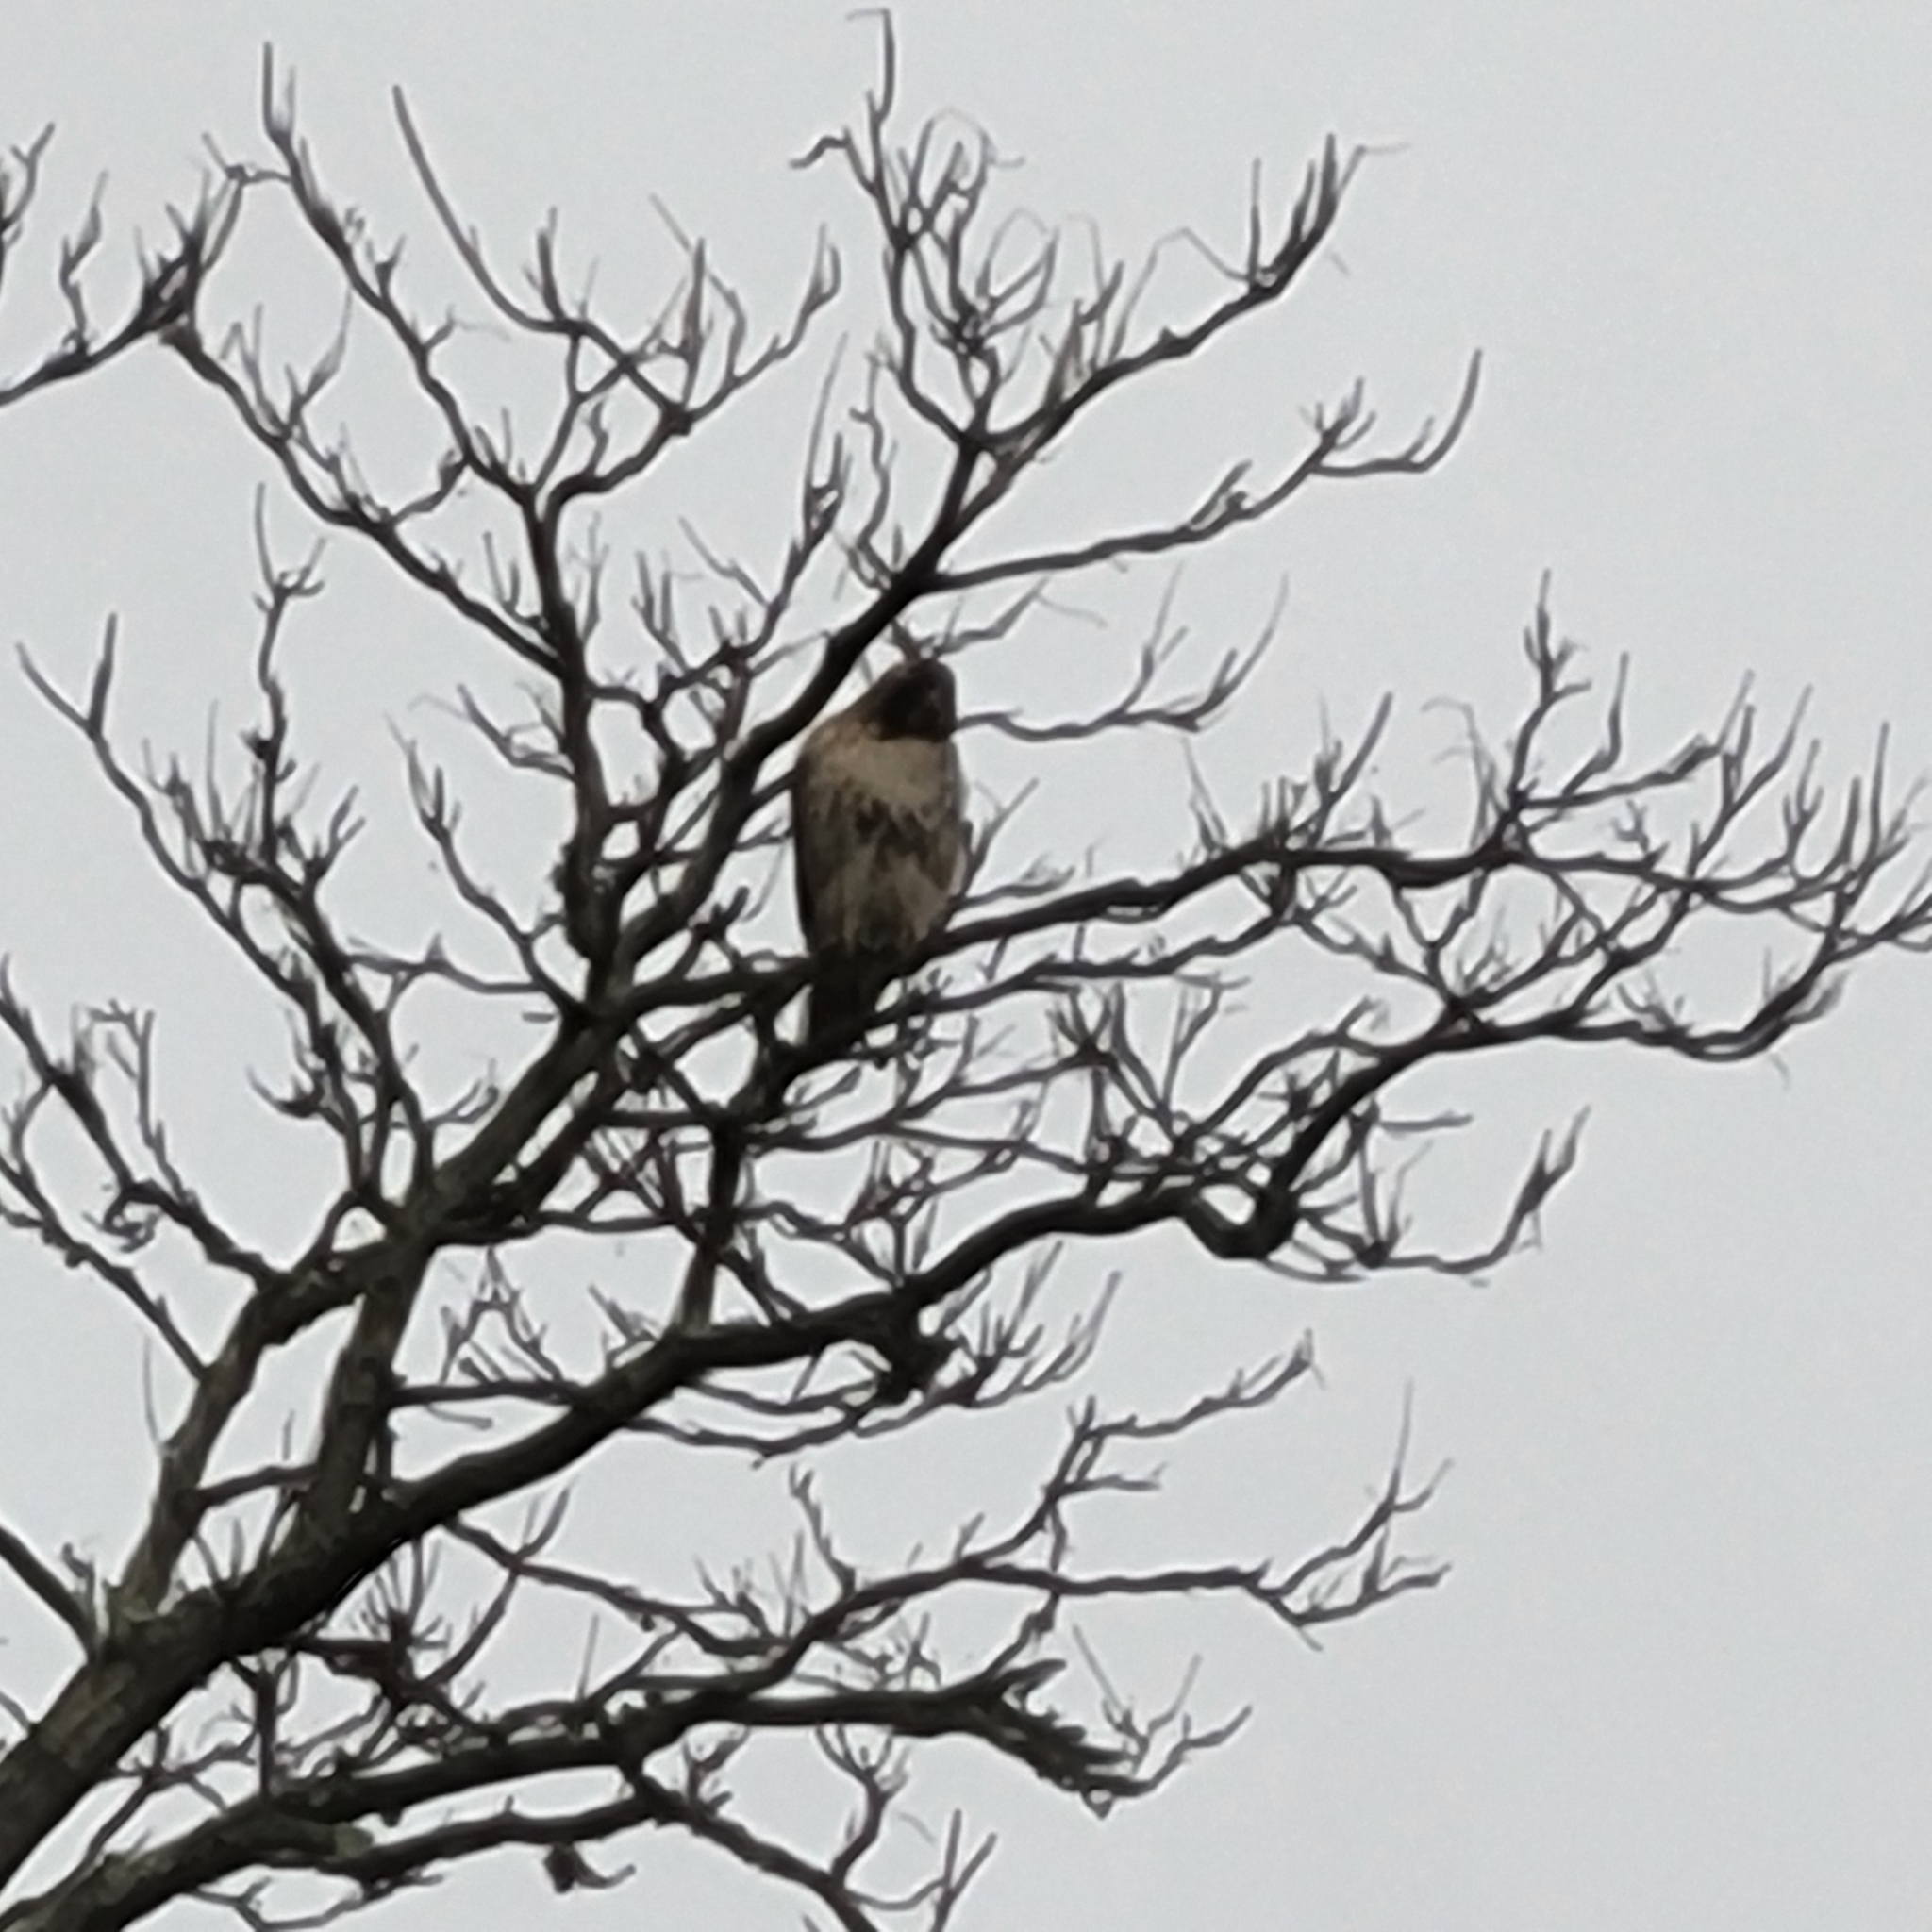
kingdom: Animalia
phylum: Chordata
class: Aves
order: Accipitriformes
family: Accipitridae
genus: Buteo
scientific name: Buteo jamaicensis
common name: Red-tailed hawk
